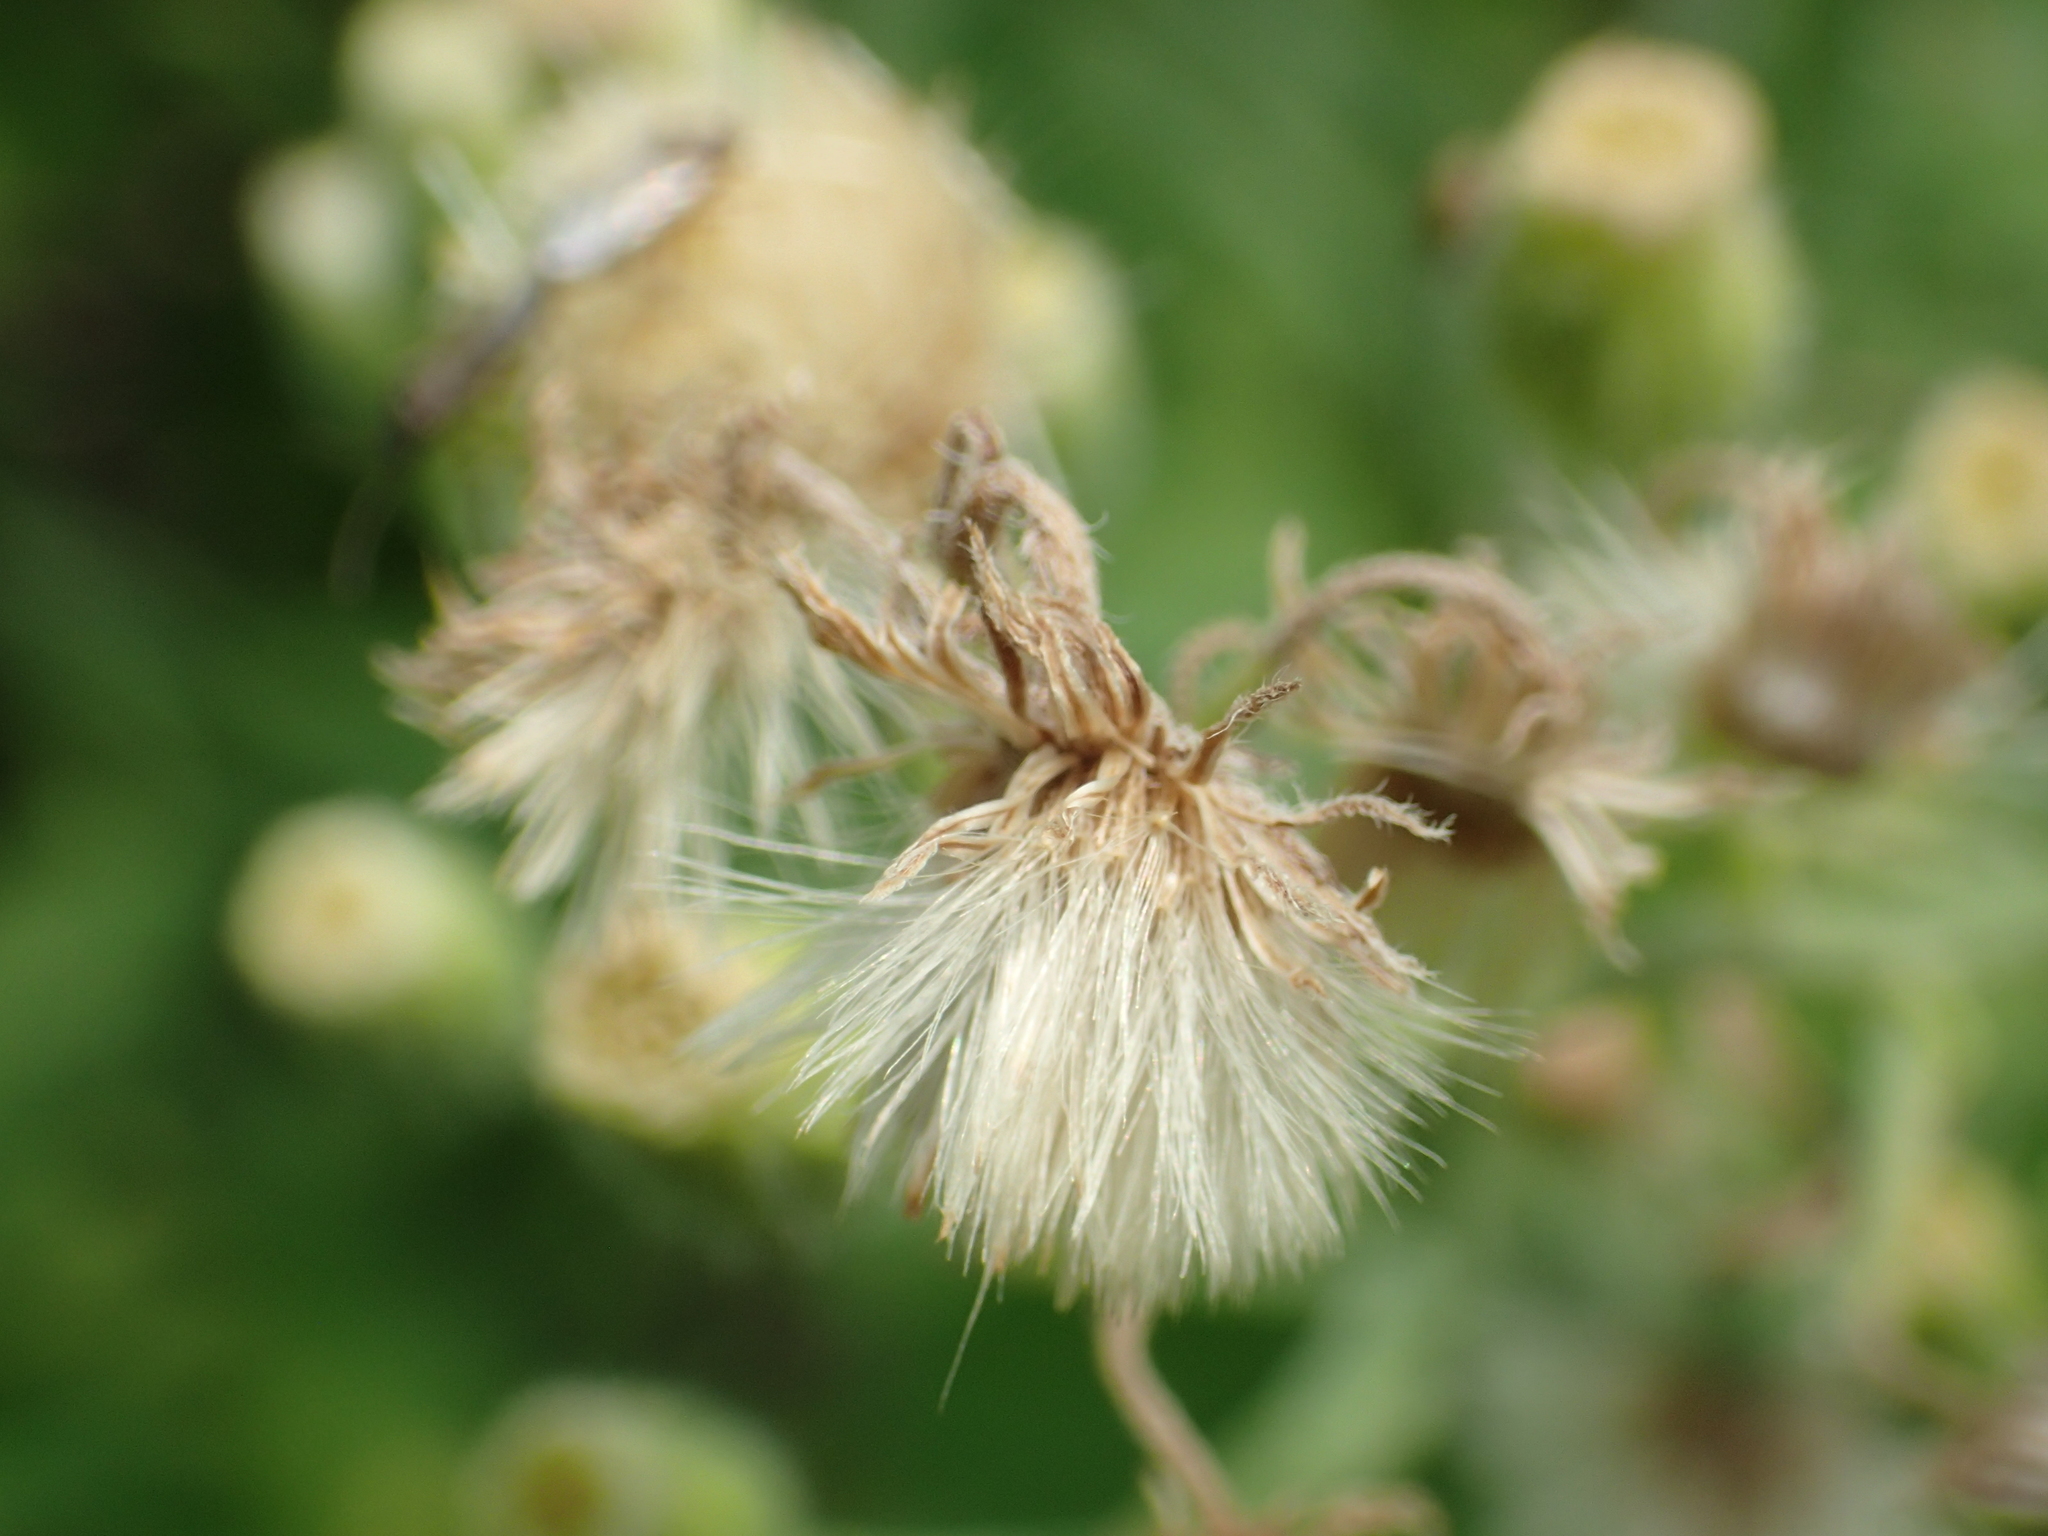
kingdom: Plantae
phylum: Tracheophyta
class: Magnoliopsida
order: Asterales
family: Asteraceae
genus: Erigeron
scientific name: Erigeron bonariensis
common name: Argentine fleabane
